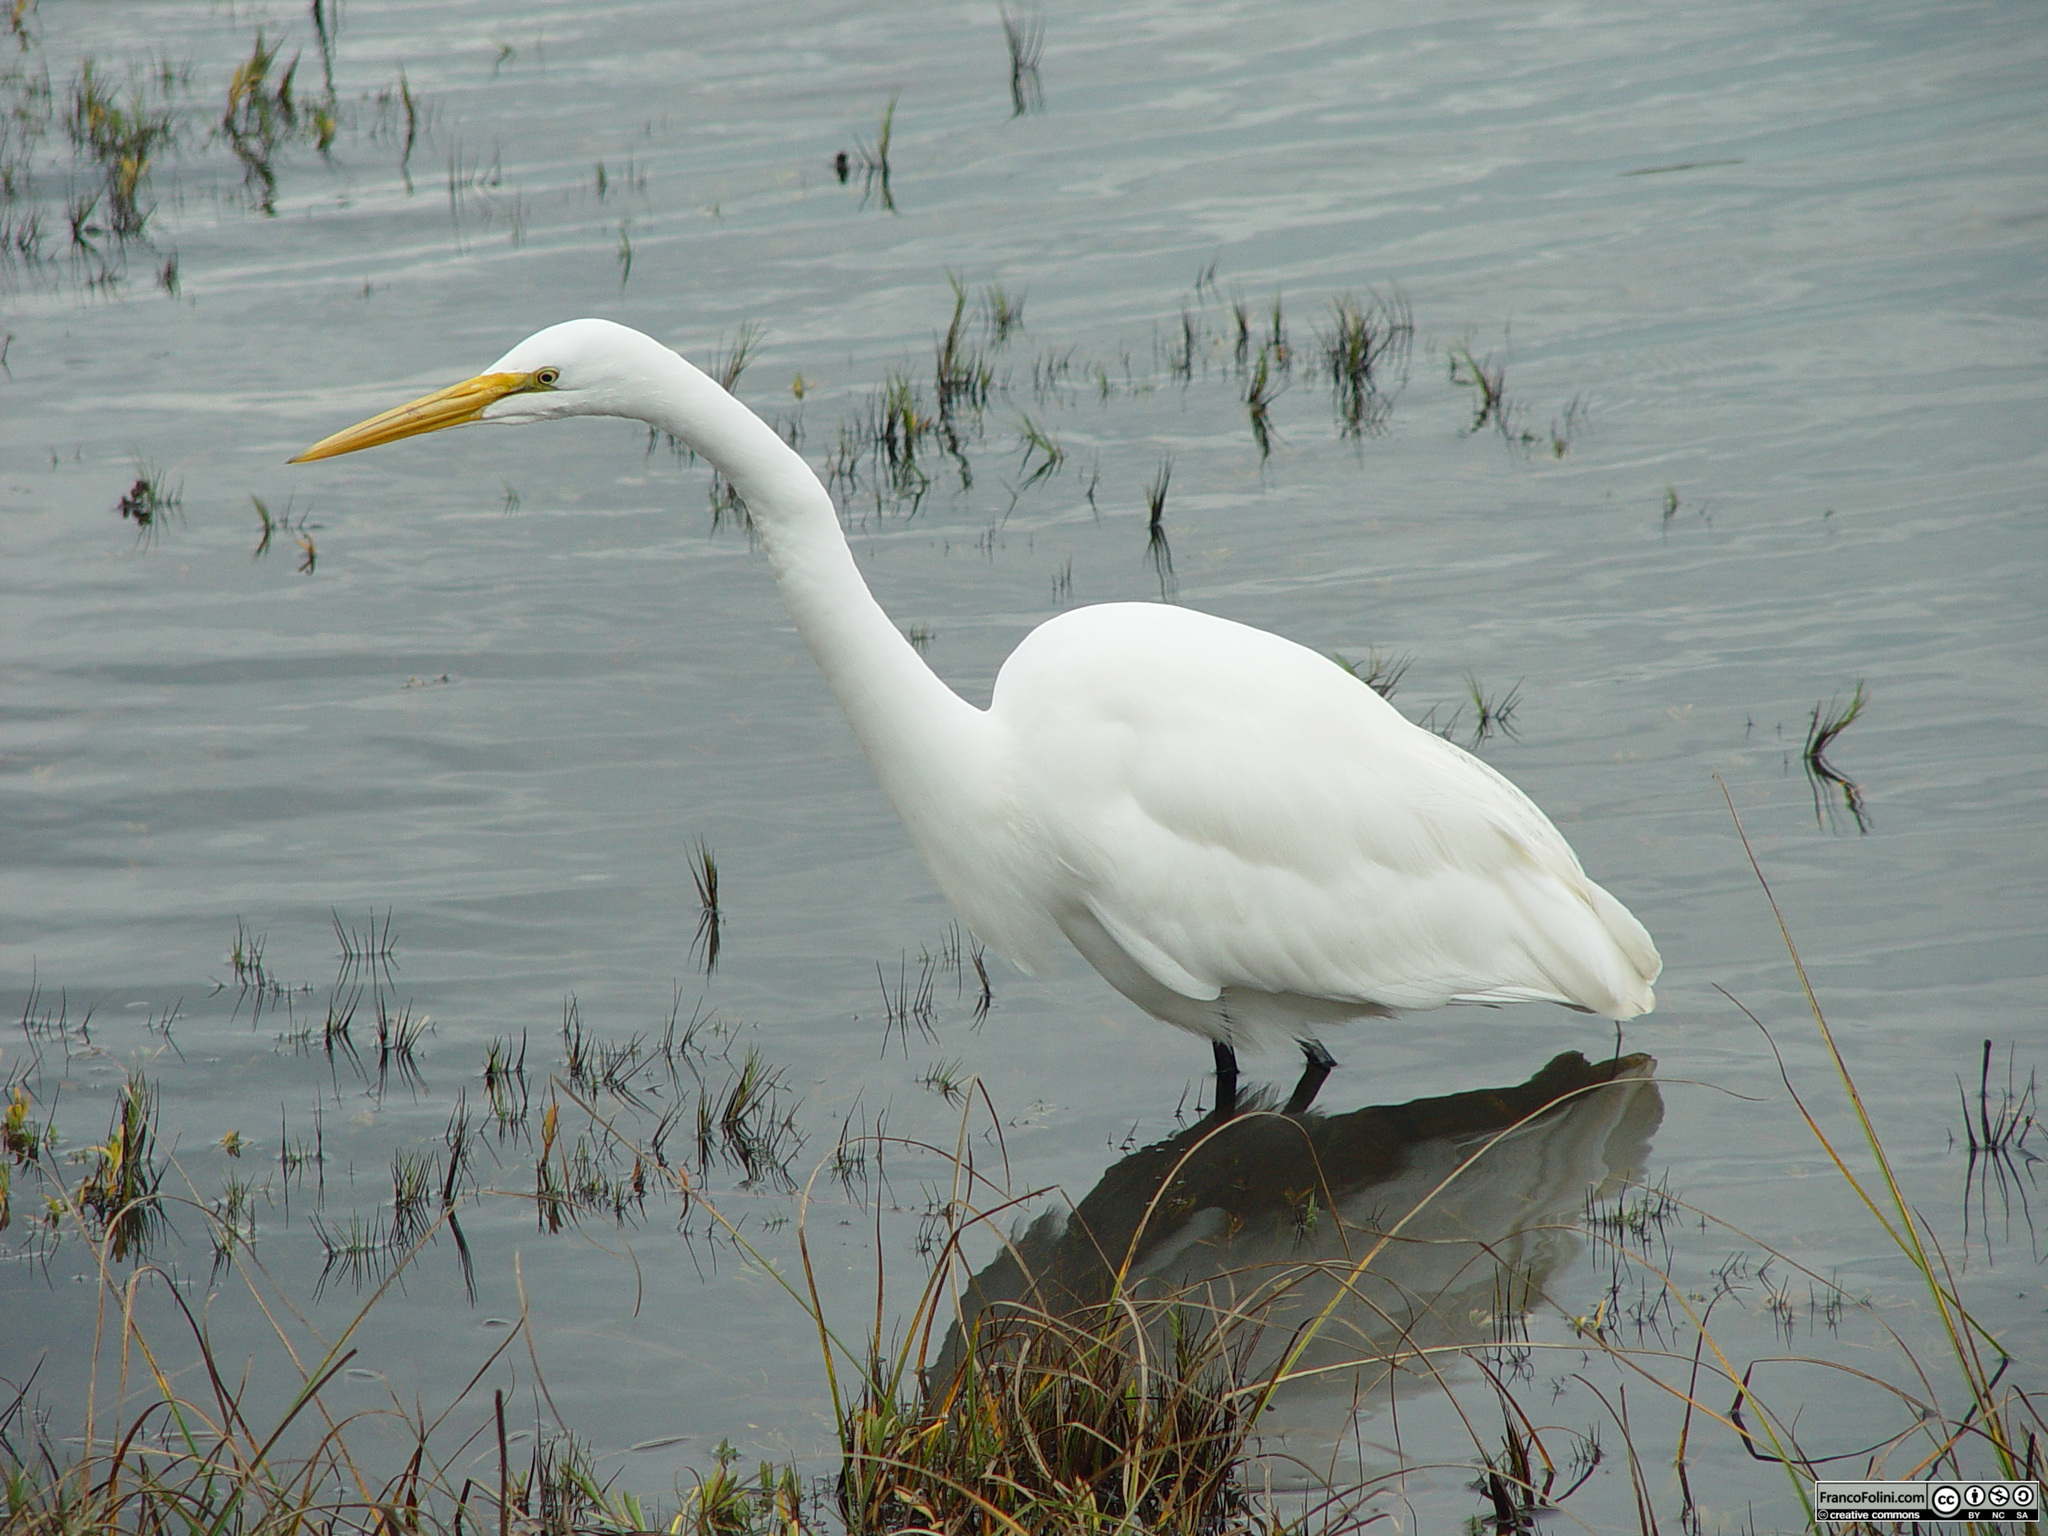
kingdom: Animalia
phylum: Chordata
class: Aves
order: Pelecaniformes
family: Ardeidae
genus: Ardea
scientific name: Ardea alba
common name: Great egret
